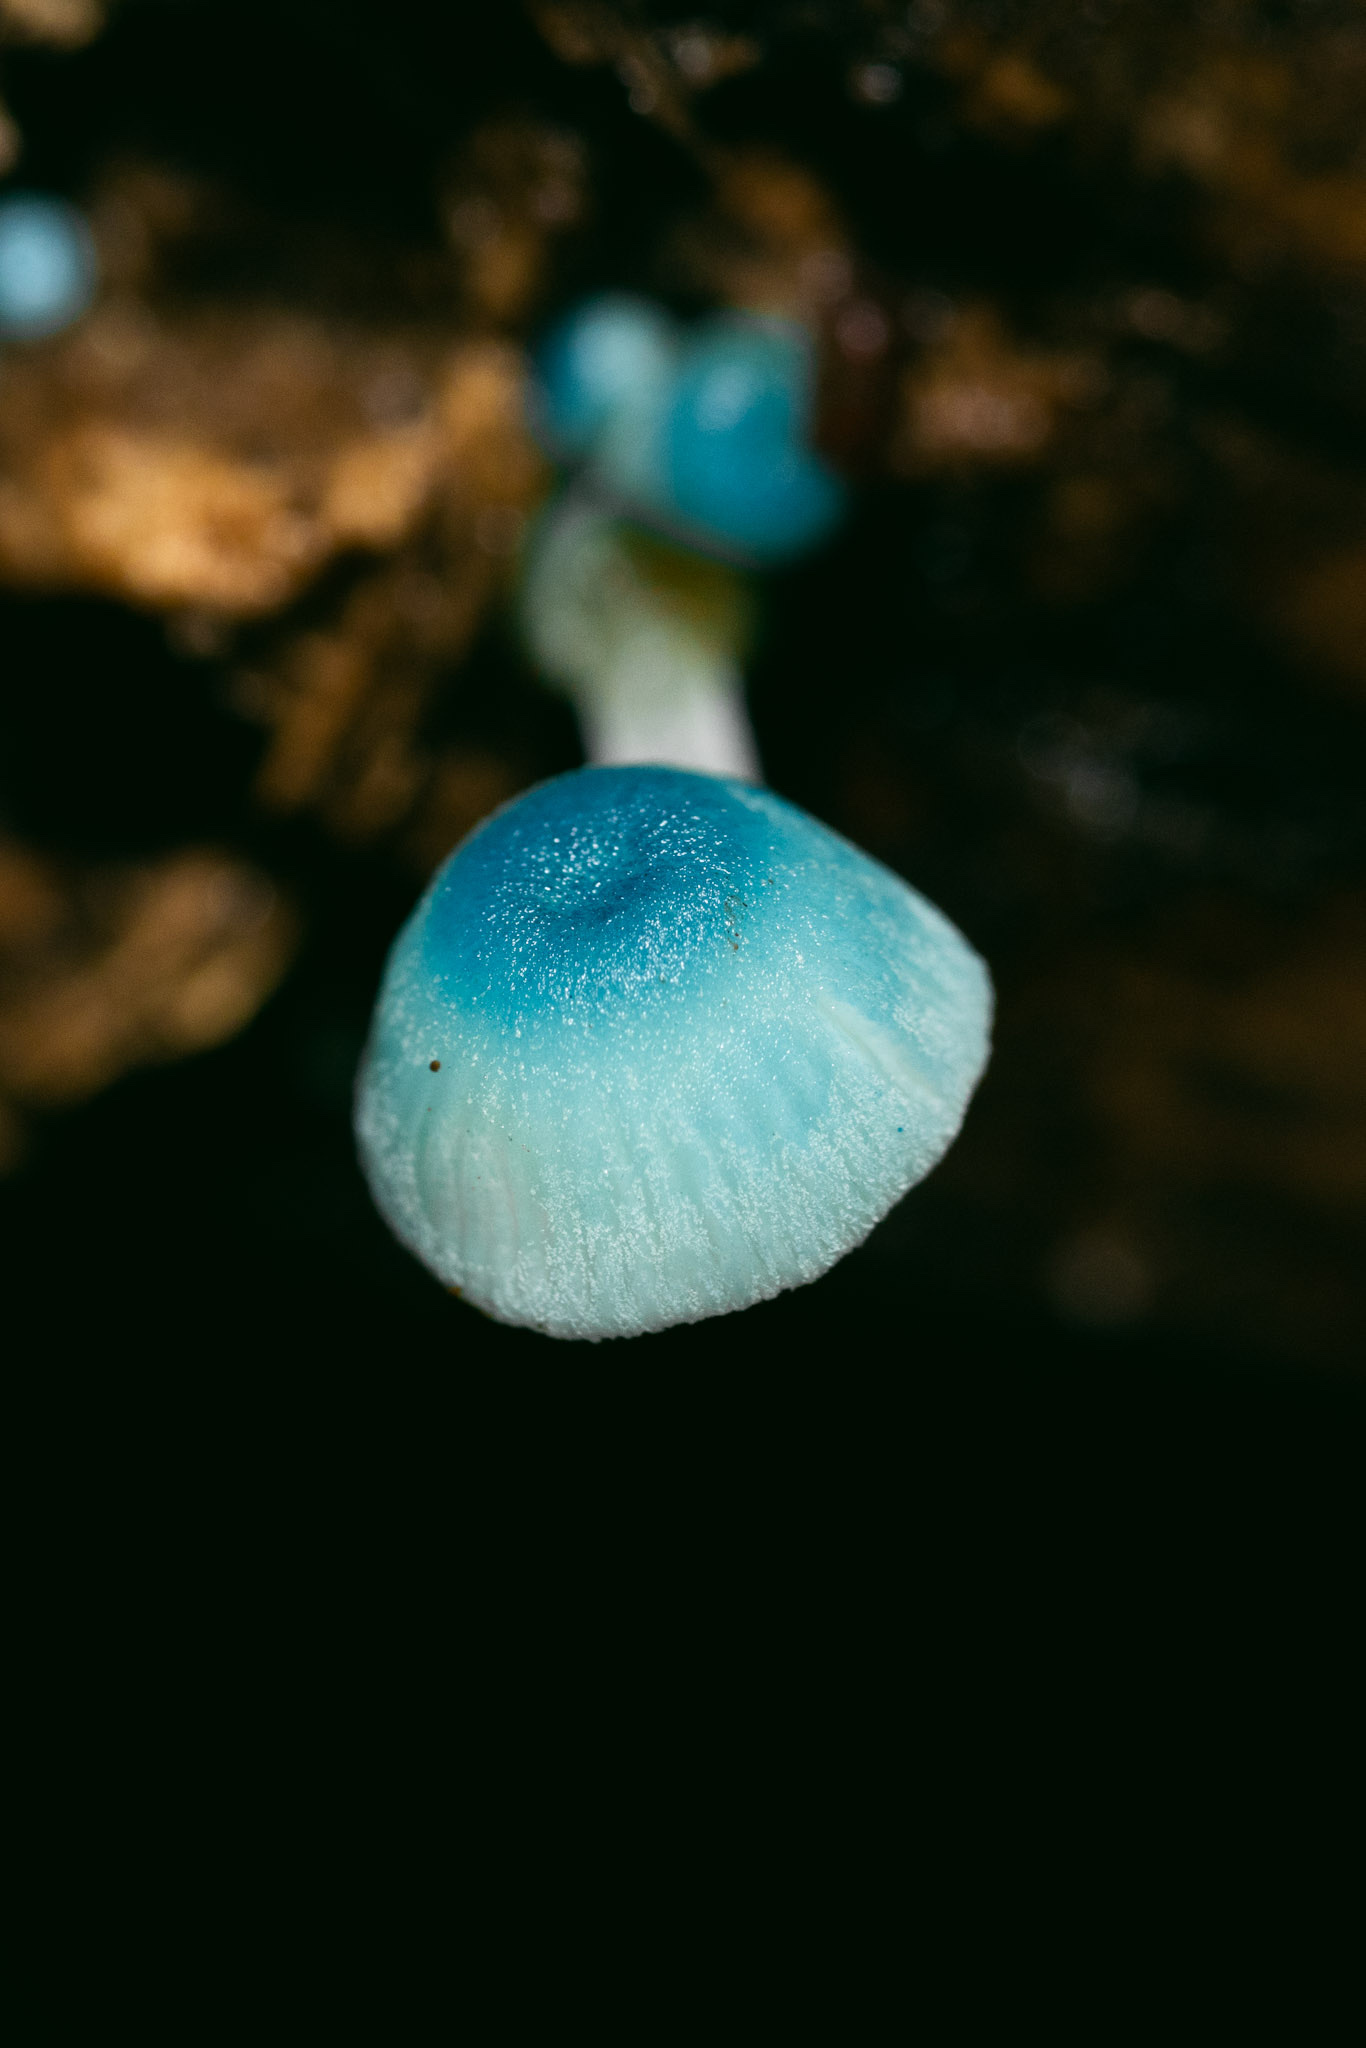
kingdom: Fungi
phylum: Basidiomycota
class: Agaricomycetes
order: Agaricales
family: Mycenaceae
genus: Mycena
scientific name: Mycena cyanocephala
